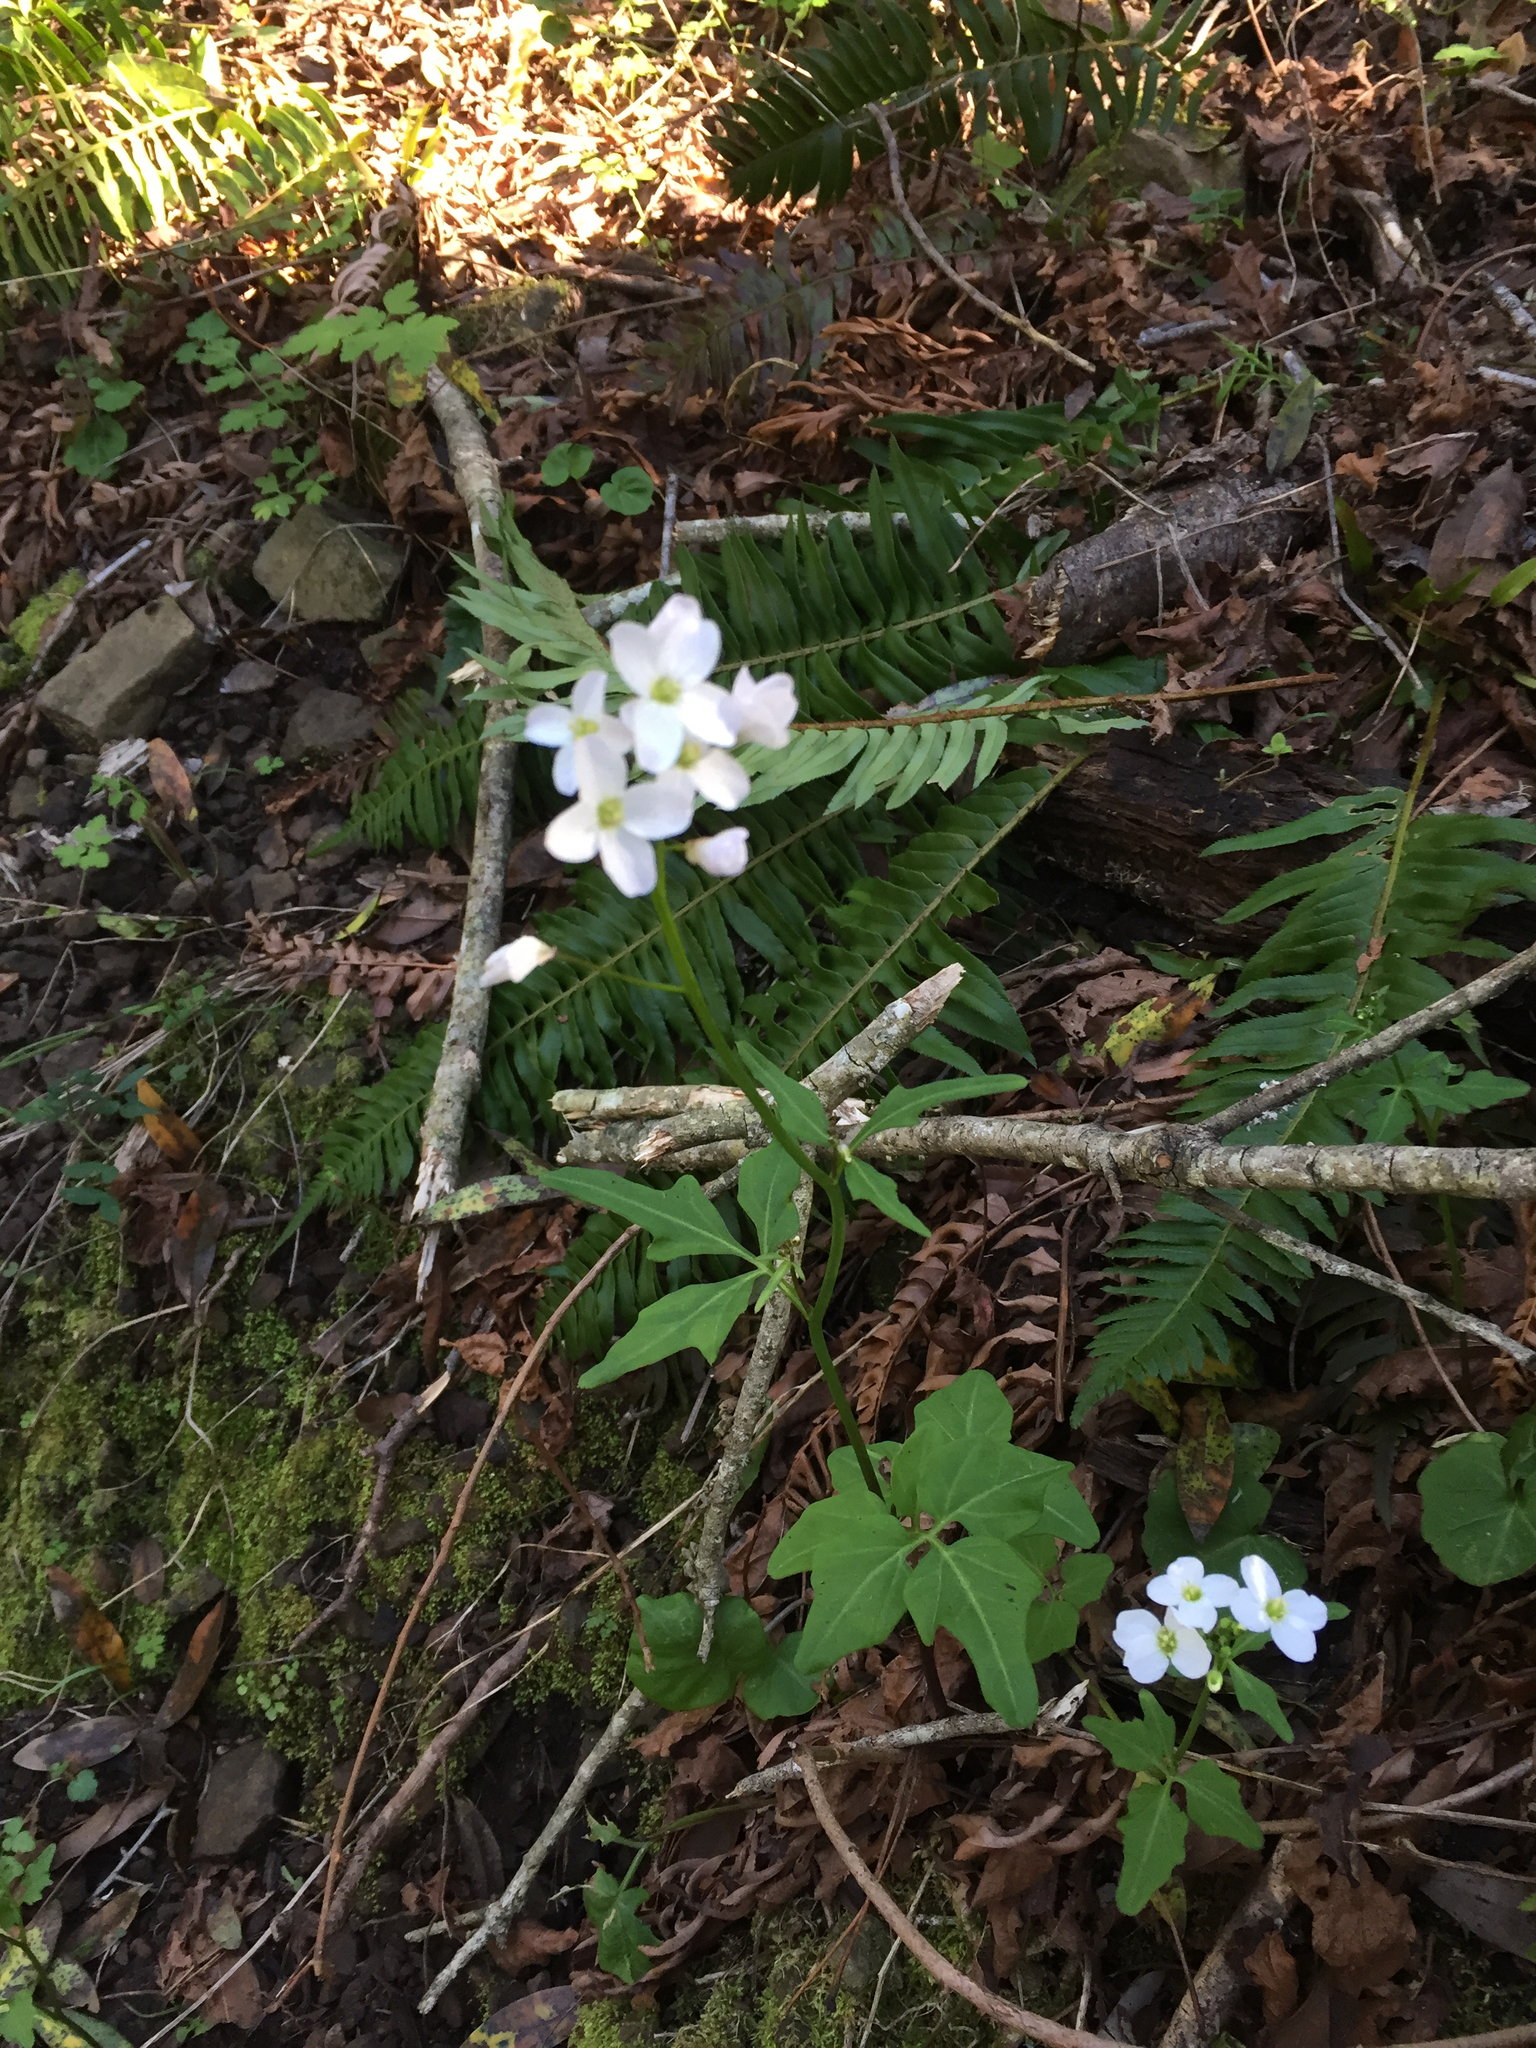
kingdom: Plantae
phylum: Tracheophyta
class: Magnoliopsida
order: Brassicales
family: Brassicaceae
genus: Cardamine
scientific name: Cardamine californica
